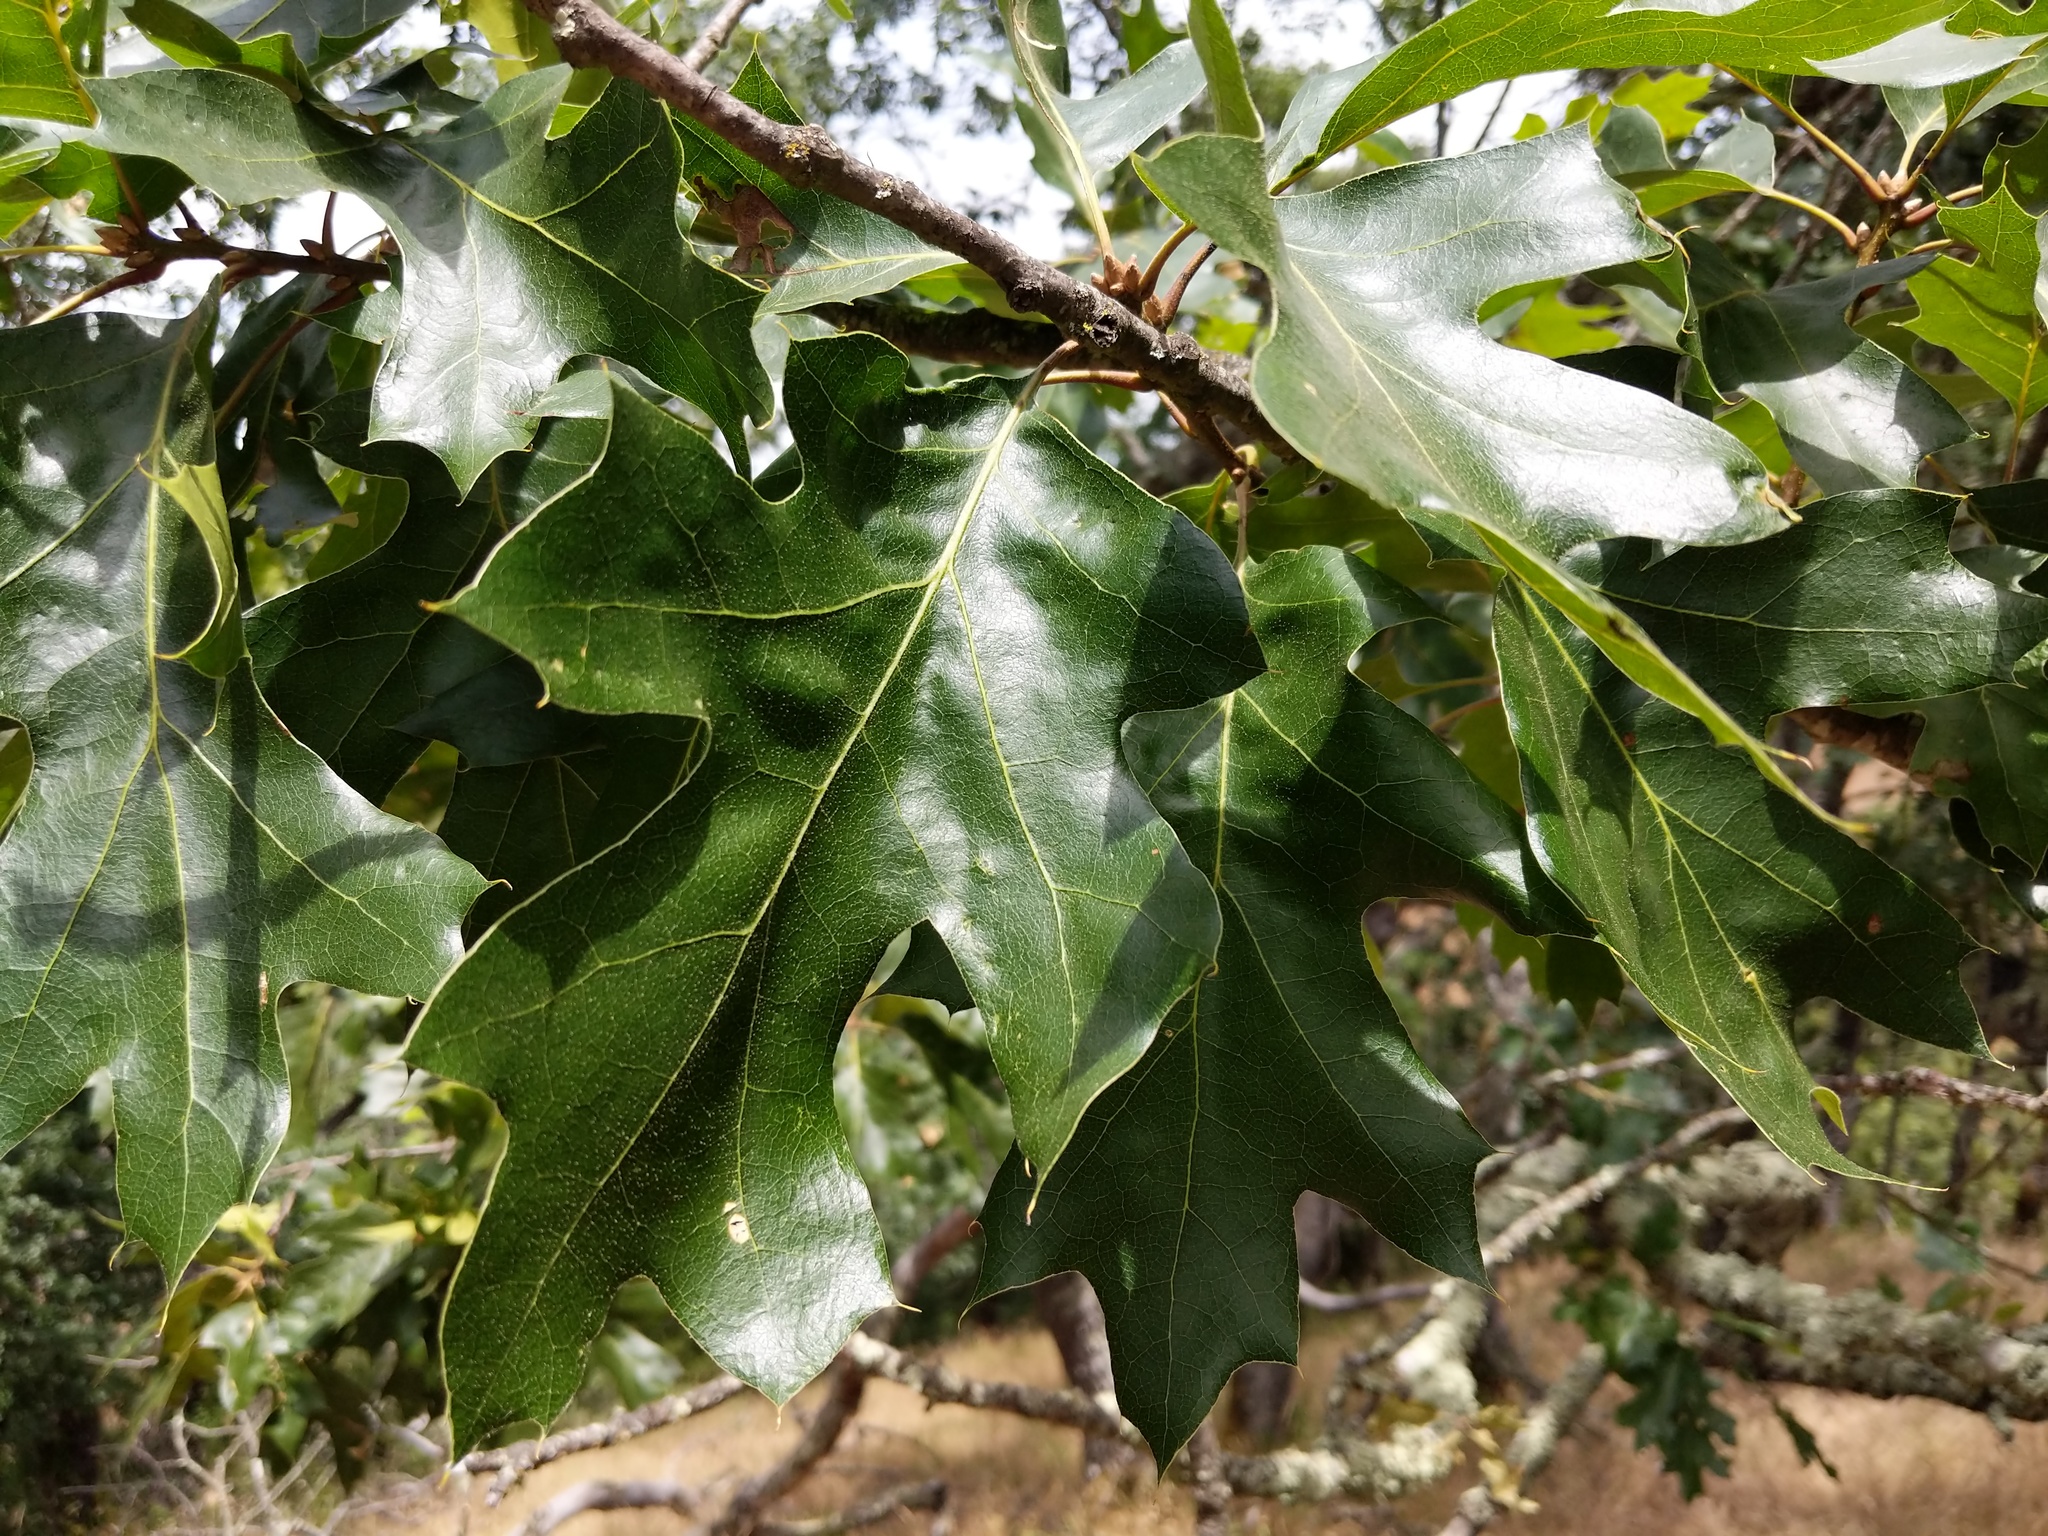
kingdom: Plantae
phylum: Tracheophyta
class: Magnoliopsida
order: Fagales
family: Fagaceae
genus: Quercus
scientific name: Quercus kelloggii
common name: California black oak
